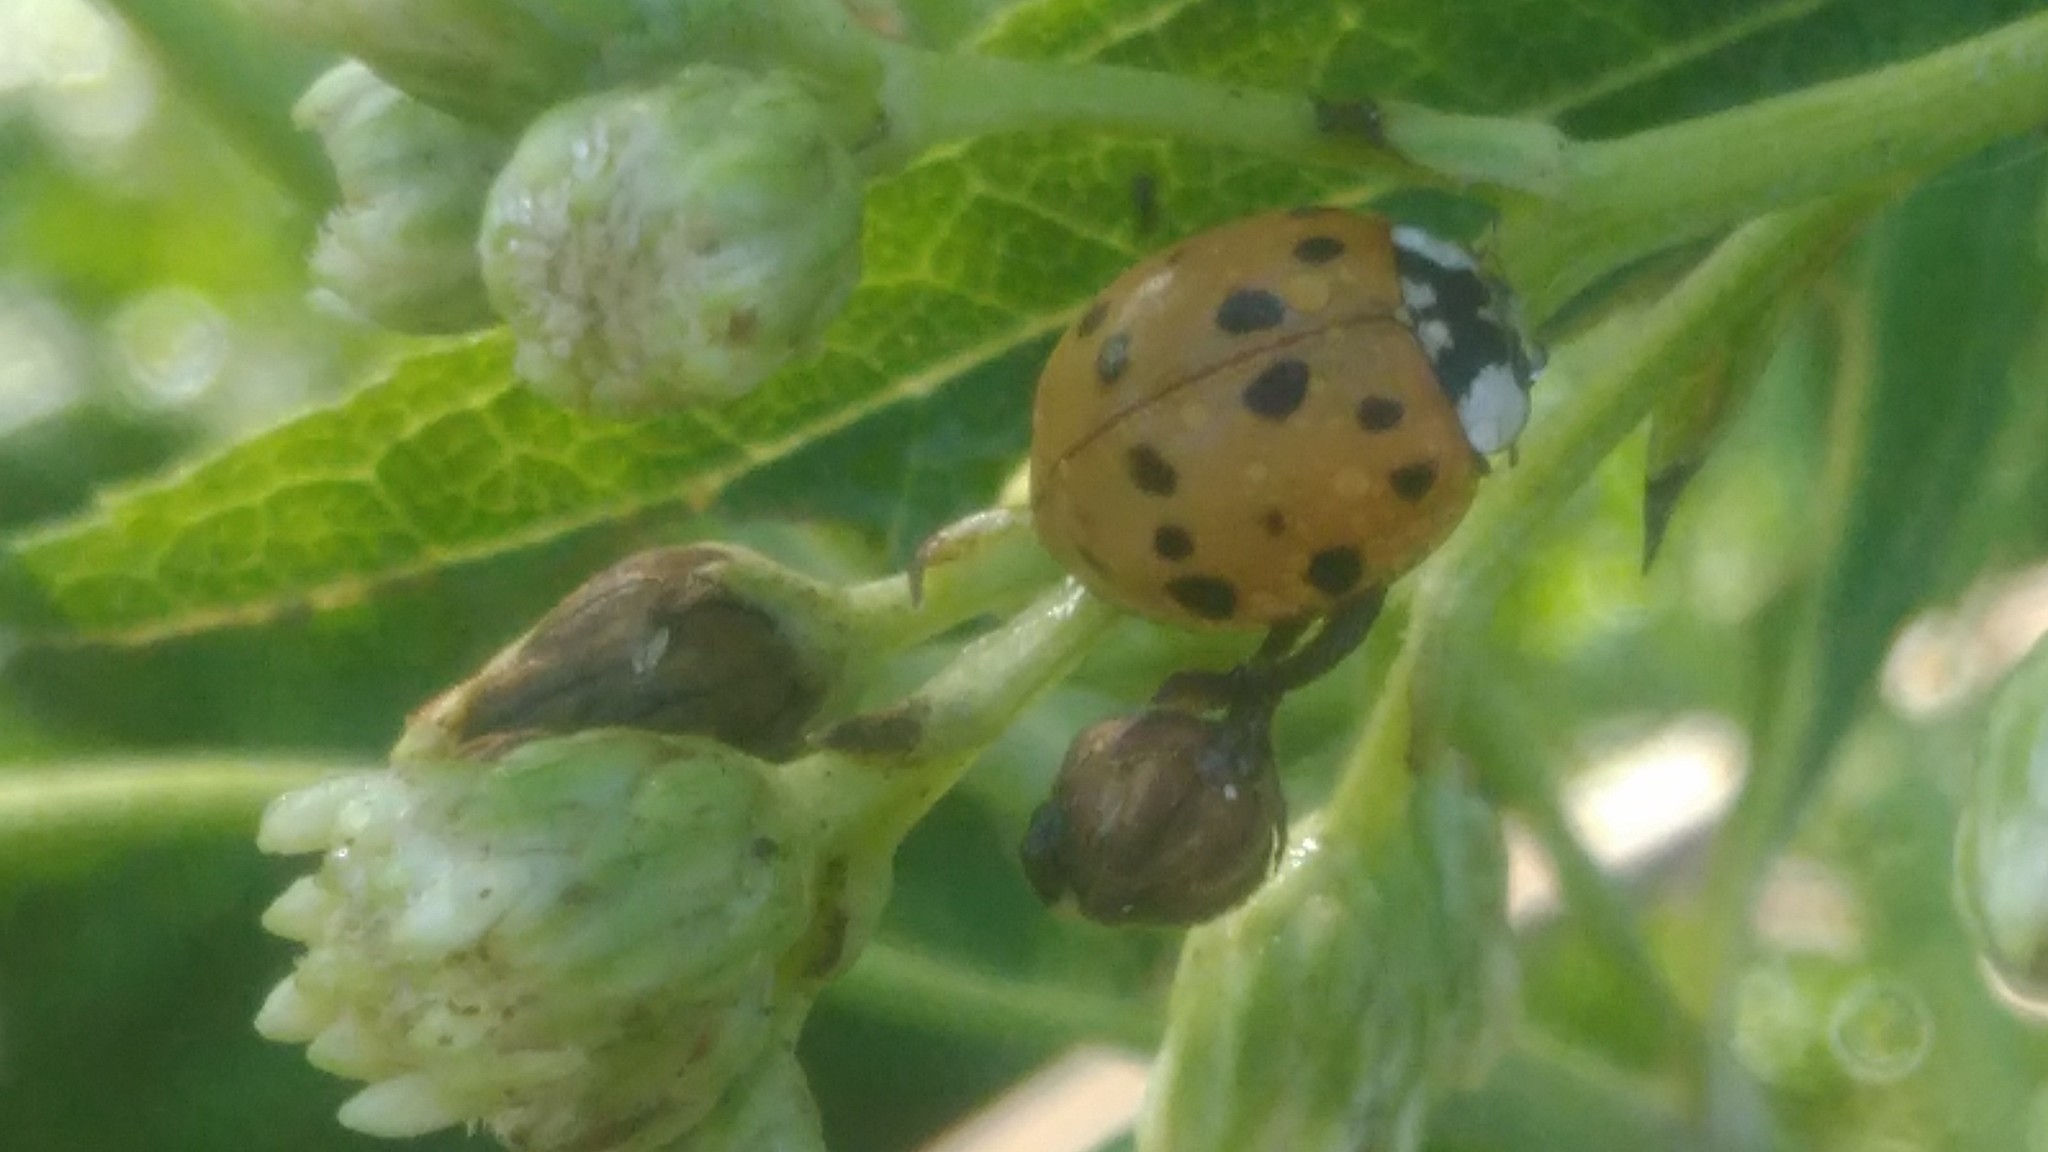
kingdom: Animalia
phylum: Arthropoda
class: Insecta
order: Coleoptera
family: Coccinellidae
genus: Harmonia
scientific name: Harmonia axyridis
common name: Harlequin ladybird
